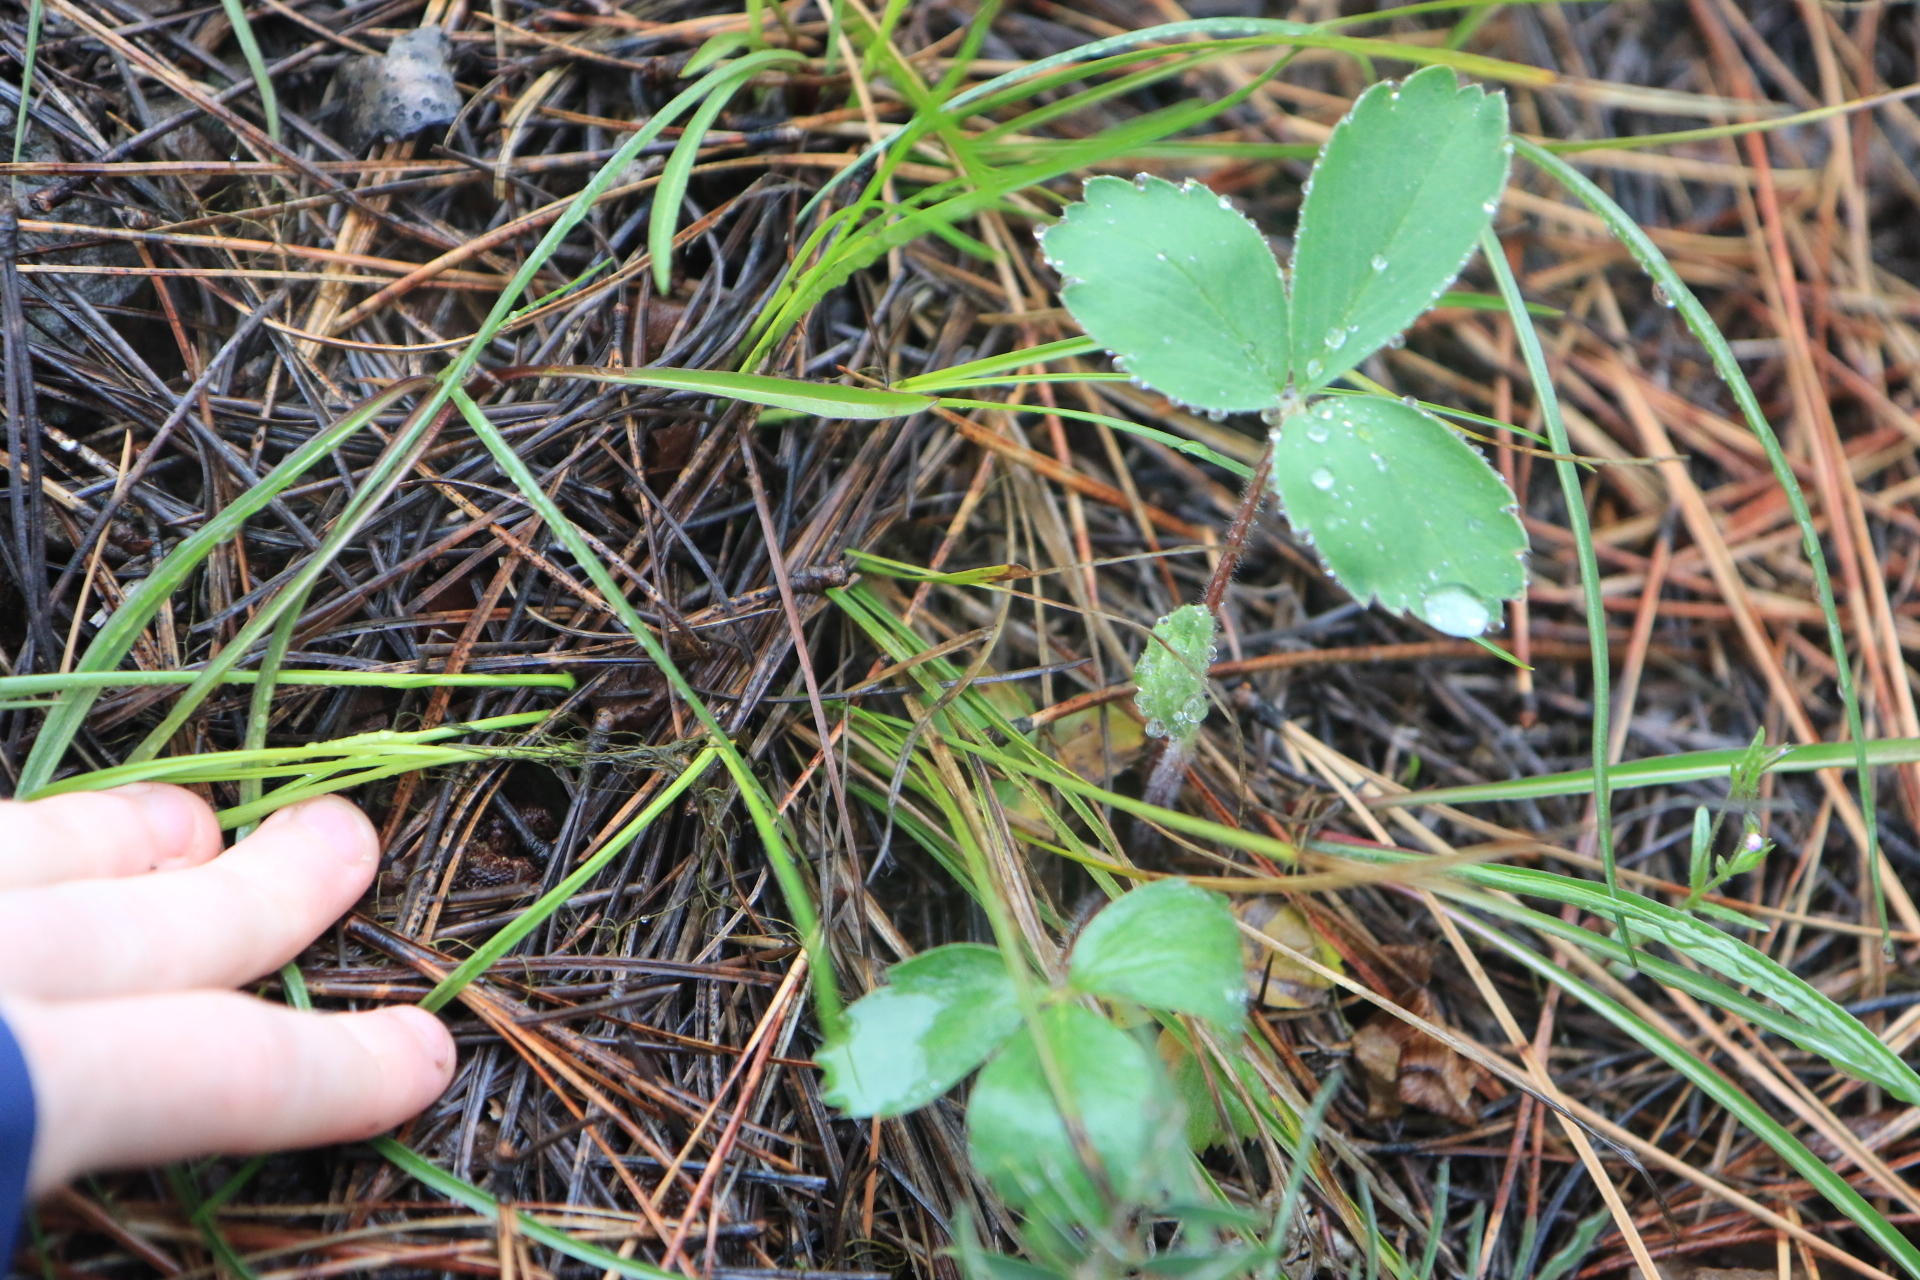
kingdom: Plantae
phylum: Tracheophyta
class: Magnoliopsida
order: Rosales
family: Rosaceae
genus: Fragaria
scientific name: Fragaria virginiana
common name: Thickleaved wild strawberry
